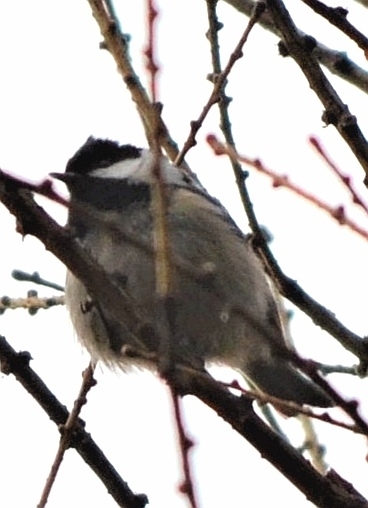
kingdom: Animalia
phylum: Chordata
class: Aves
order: Passeriformes
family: Paridae
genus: Periparus
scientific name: Periparus ater
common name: Coal tit
